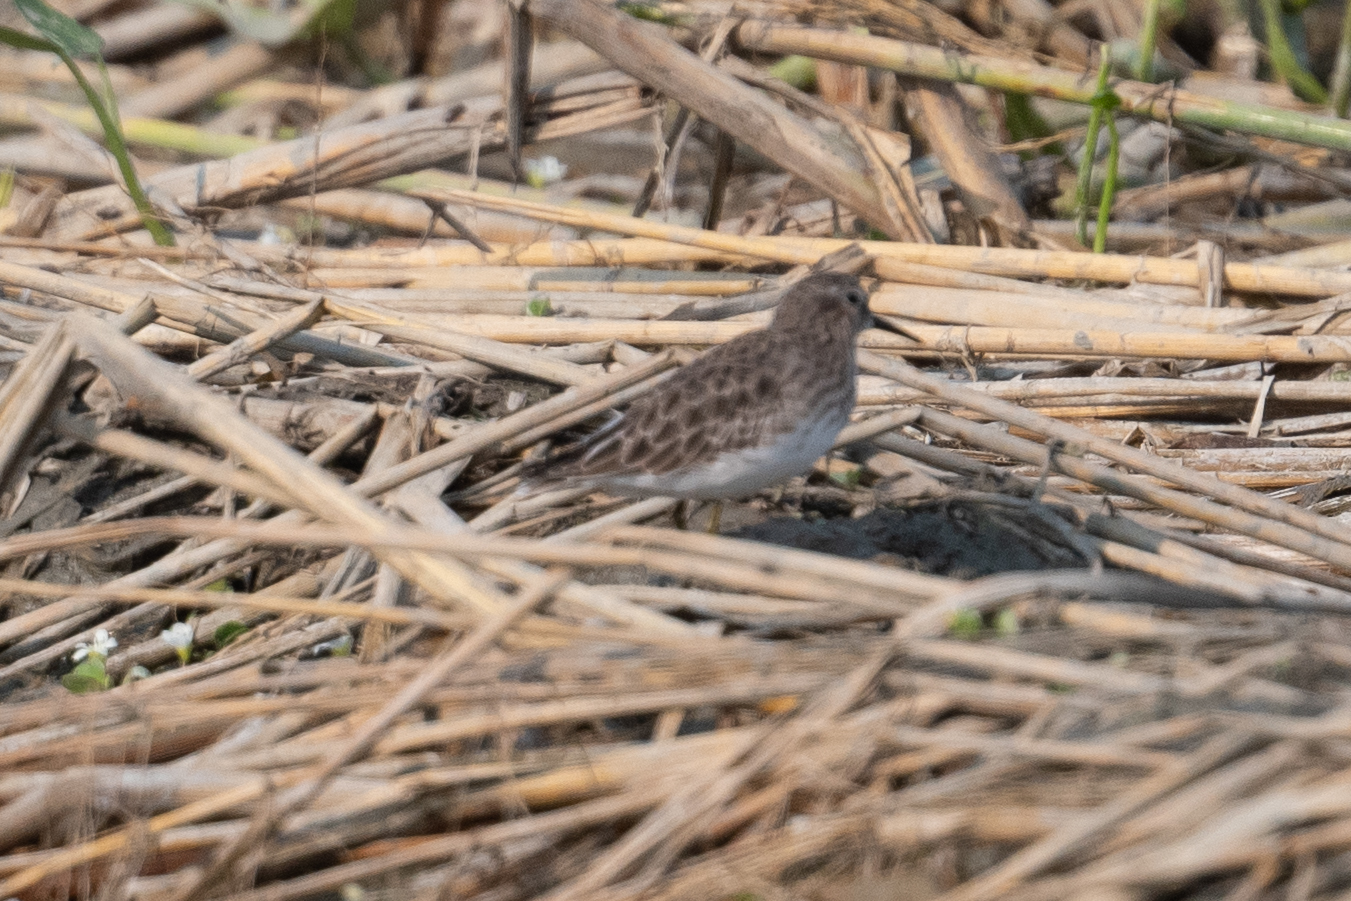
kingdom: Animalia
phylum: Chordata
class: Aves
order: Charadriiformes
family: Scolopacidae
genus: Calidris
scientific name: Calidris minutilla
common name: Least sandpiper
